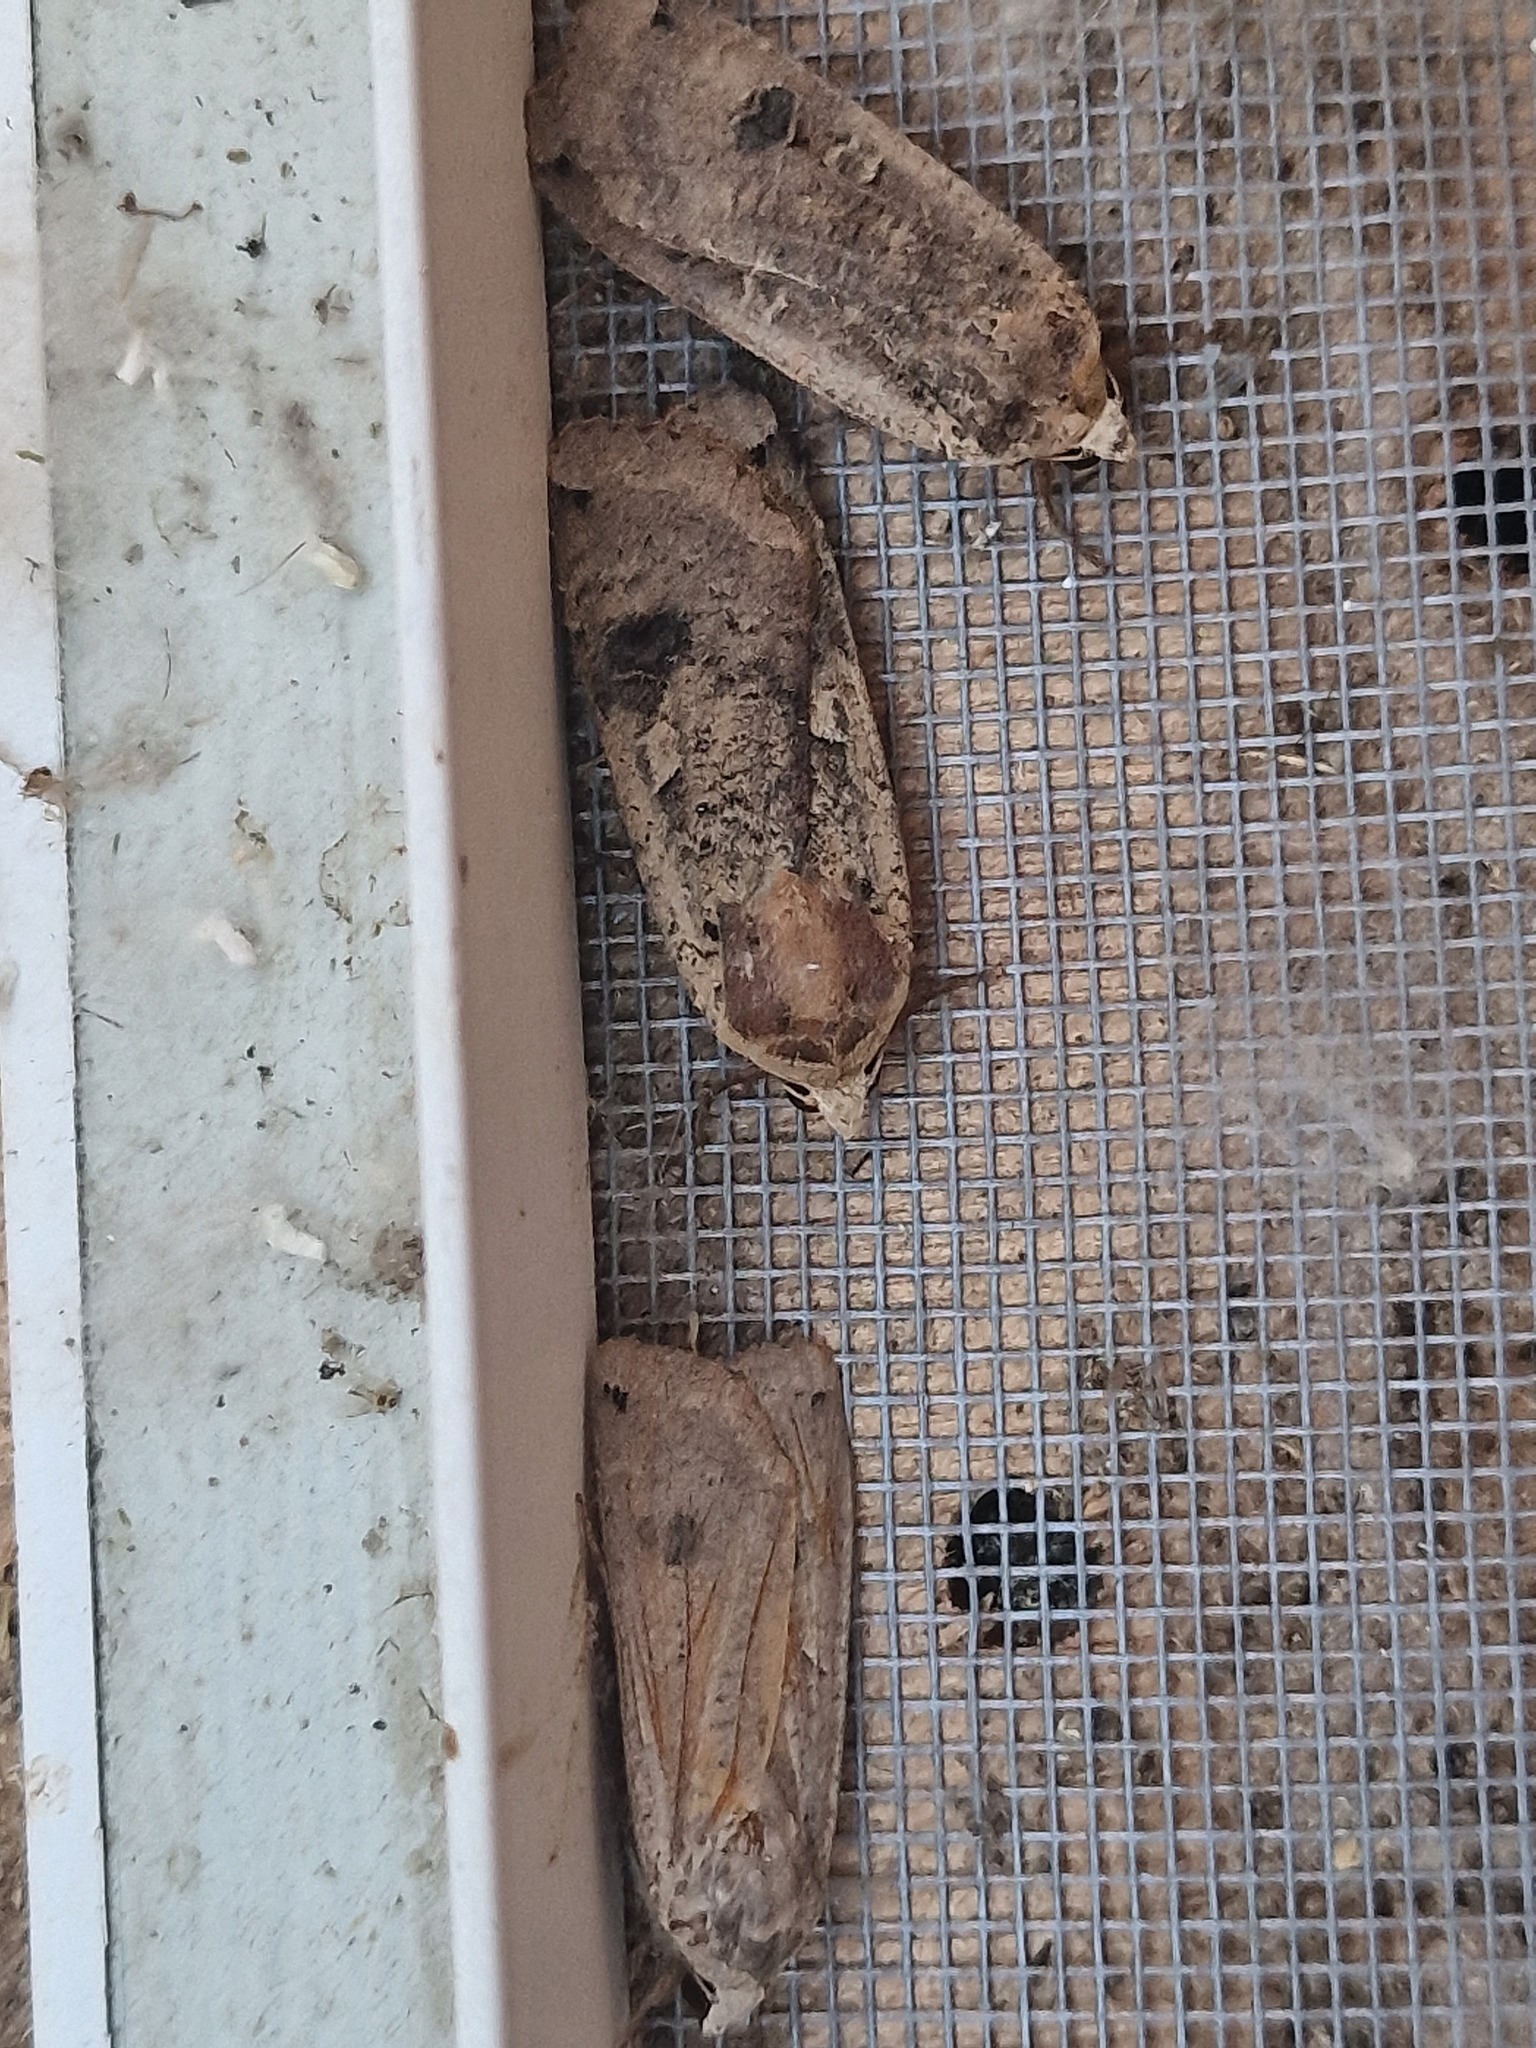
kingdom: Animalia
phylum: Arthropoda
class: Insecta
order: Lepidoptera
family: Noctuidae
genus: Noctua
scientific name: Noctua pronuba
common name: Large yellow underwing
